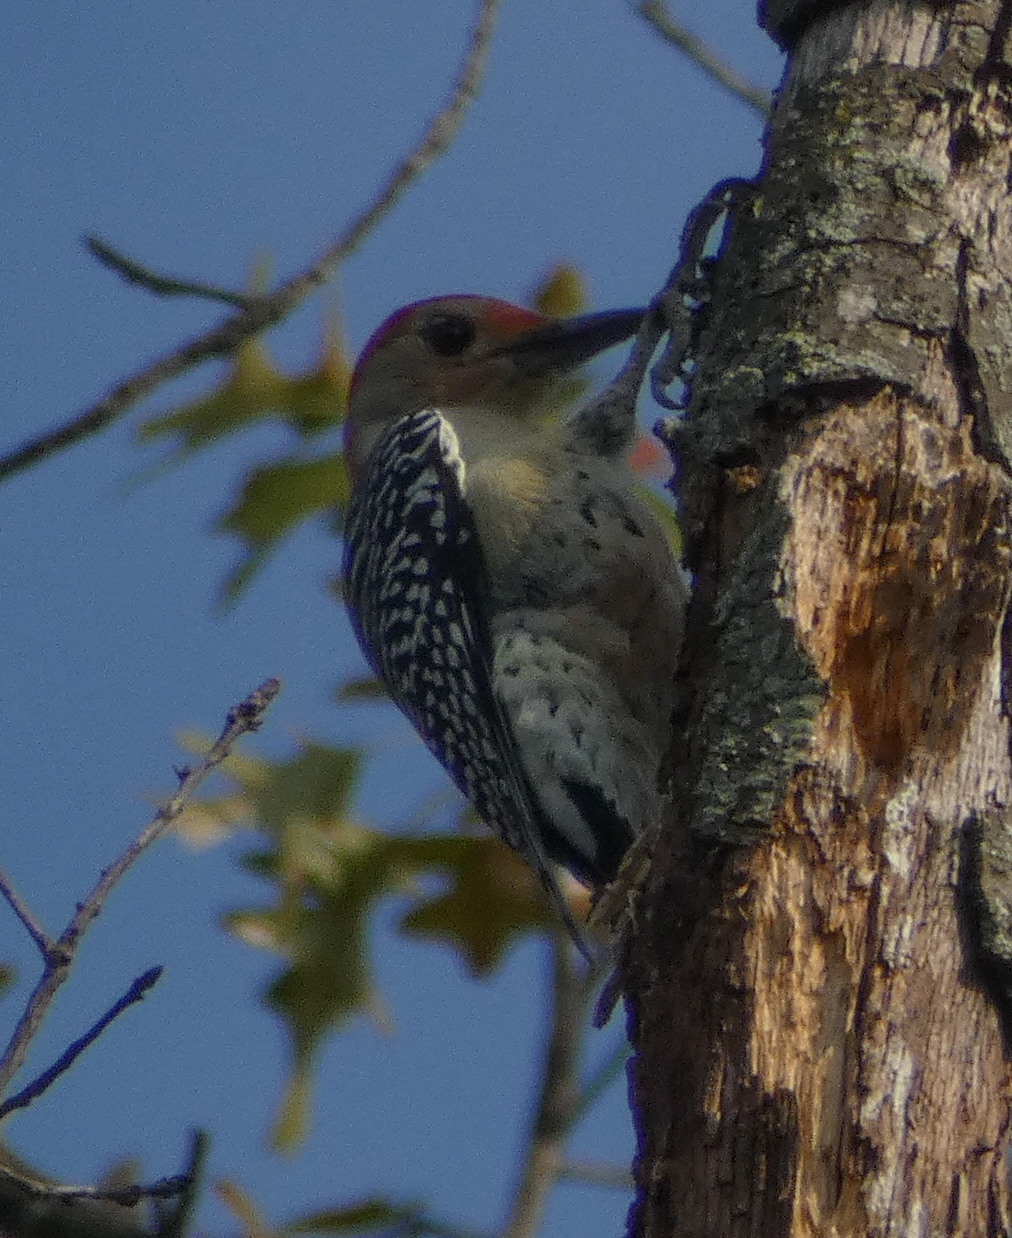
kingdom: Animalia
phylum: Chordata
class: Aves
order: Piciformes
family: Picidae
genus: Melanerpes
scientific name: Melanerpes carolinus
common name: Red-bellied woodpecker
